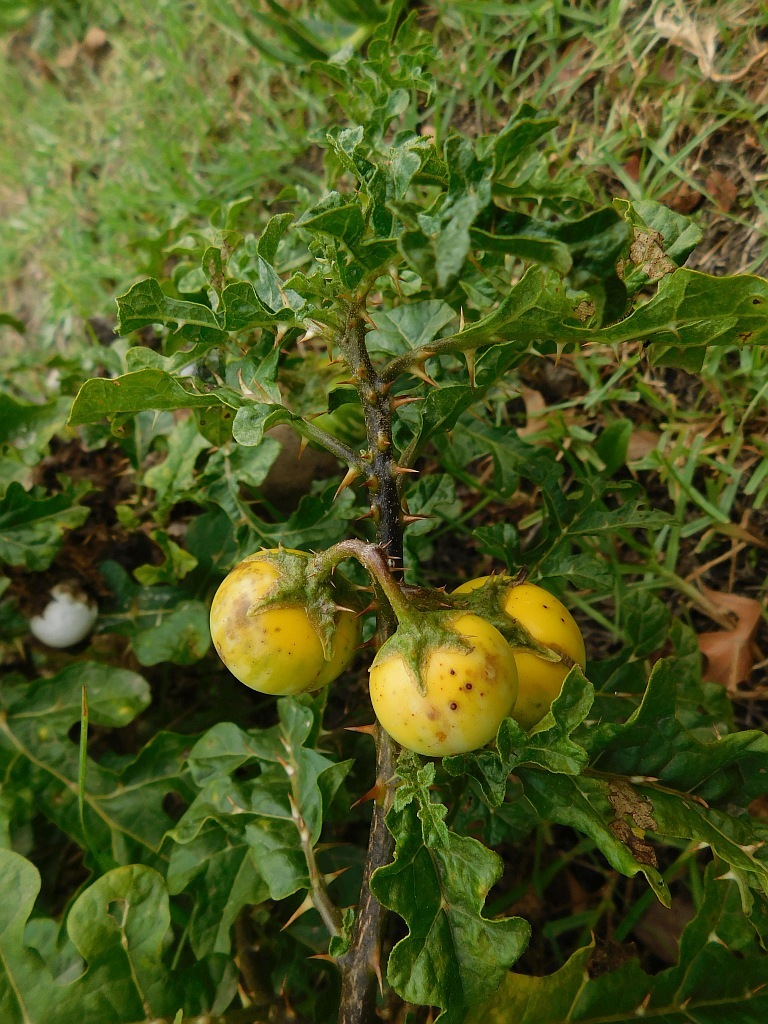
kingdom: Plantae
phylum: Tracheophyta
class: Magnoliopsida
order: Solanales
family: Solanaceae
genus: Solanum
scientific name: Solanum linnaeanum
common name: Nightshade
